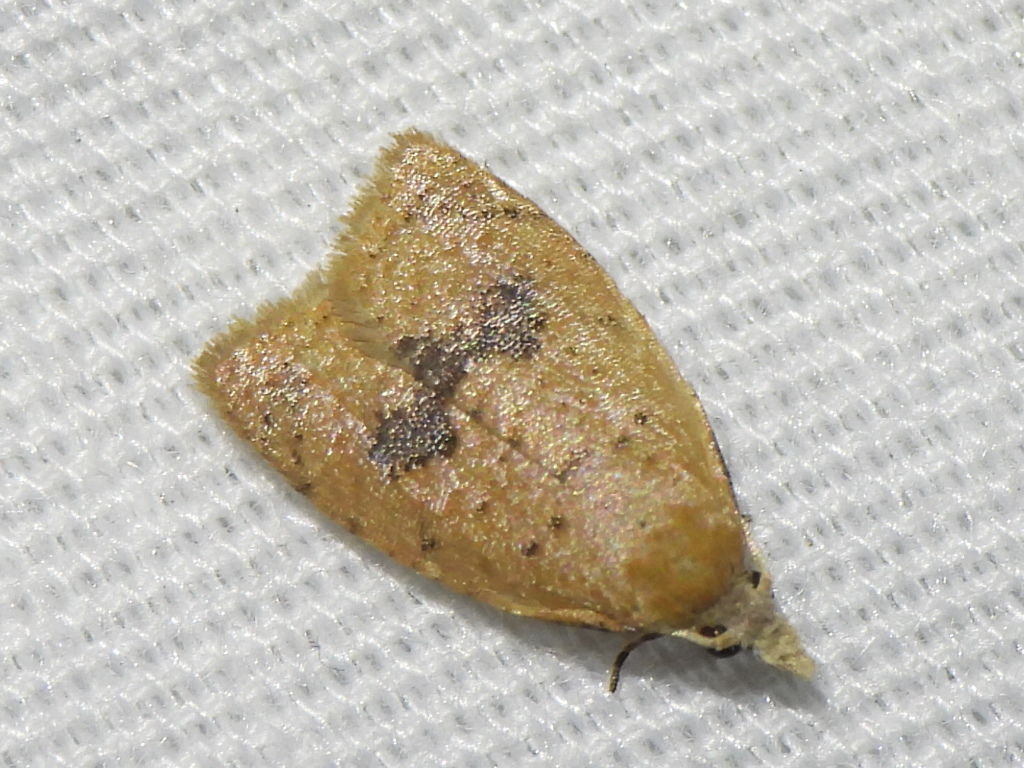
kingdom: Animalia
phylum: Arthropoda
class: Insecta
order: Lepidoptera
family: Tortricidae
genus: Sparganothoides
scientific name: Sparganothoides lentiginosana
